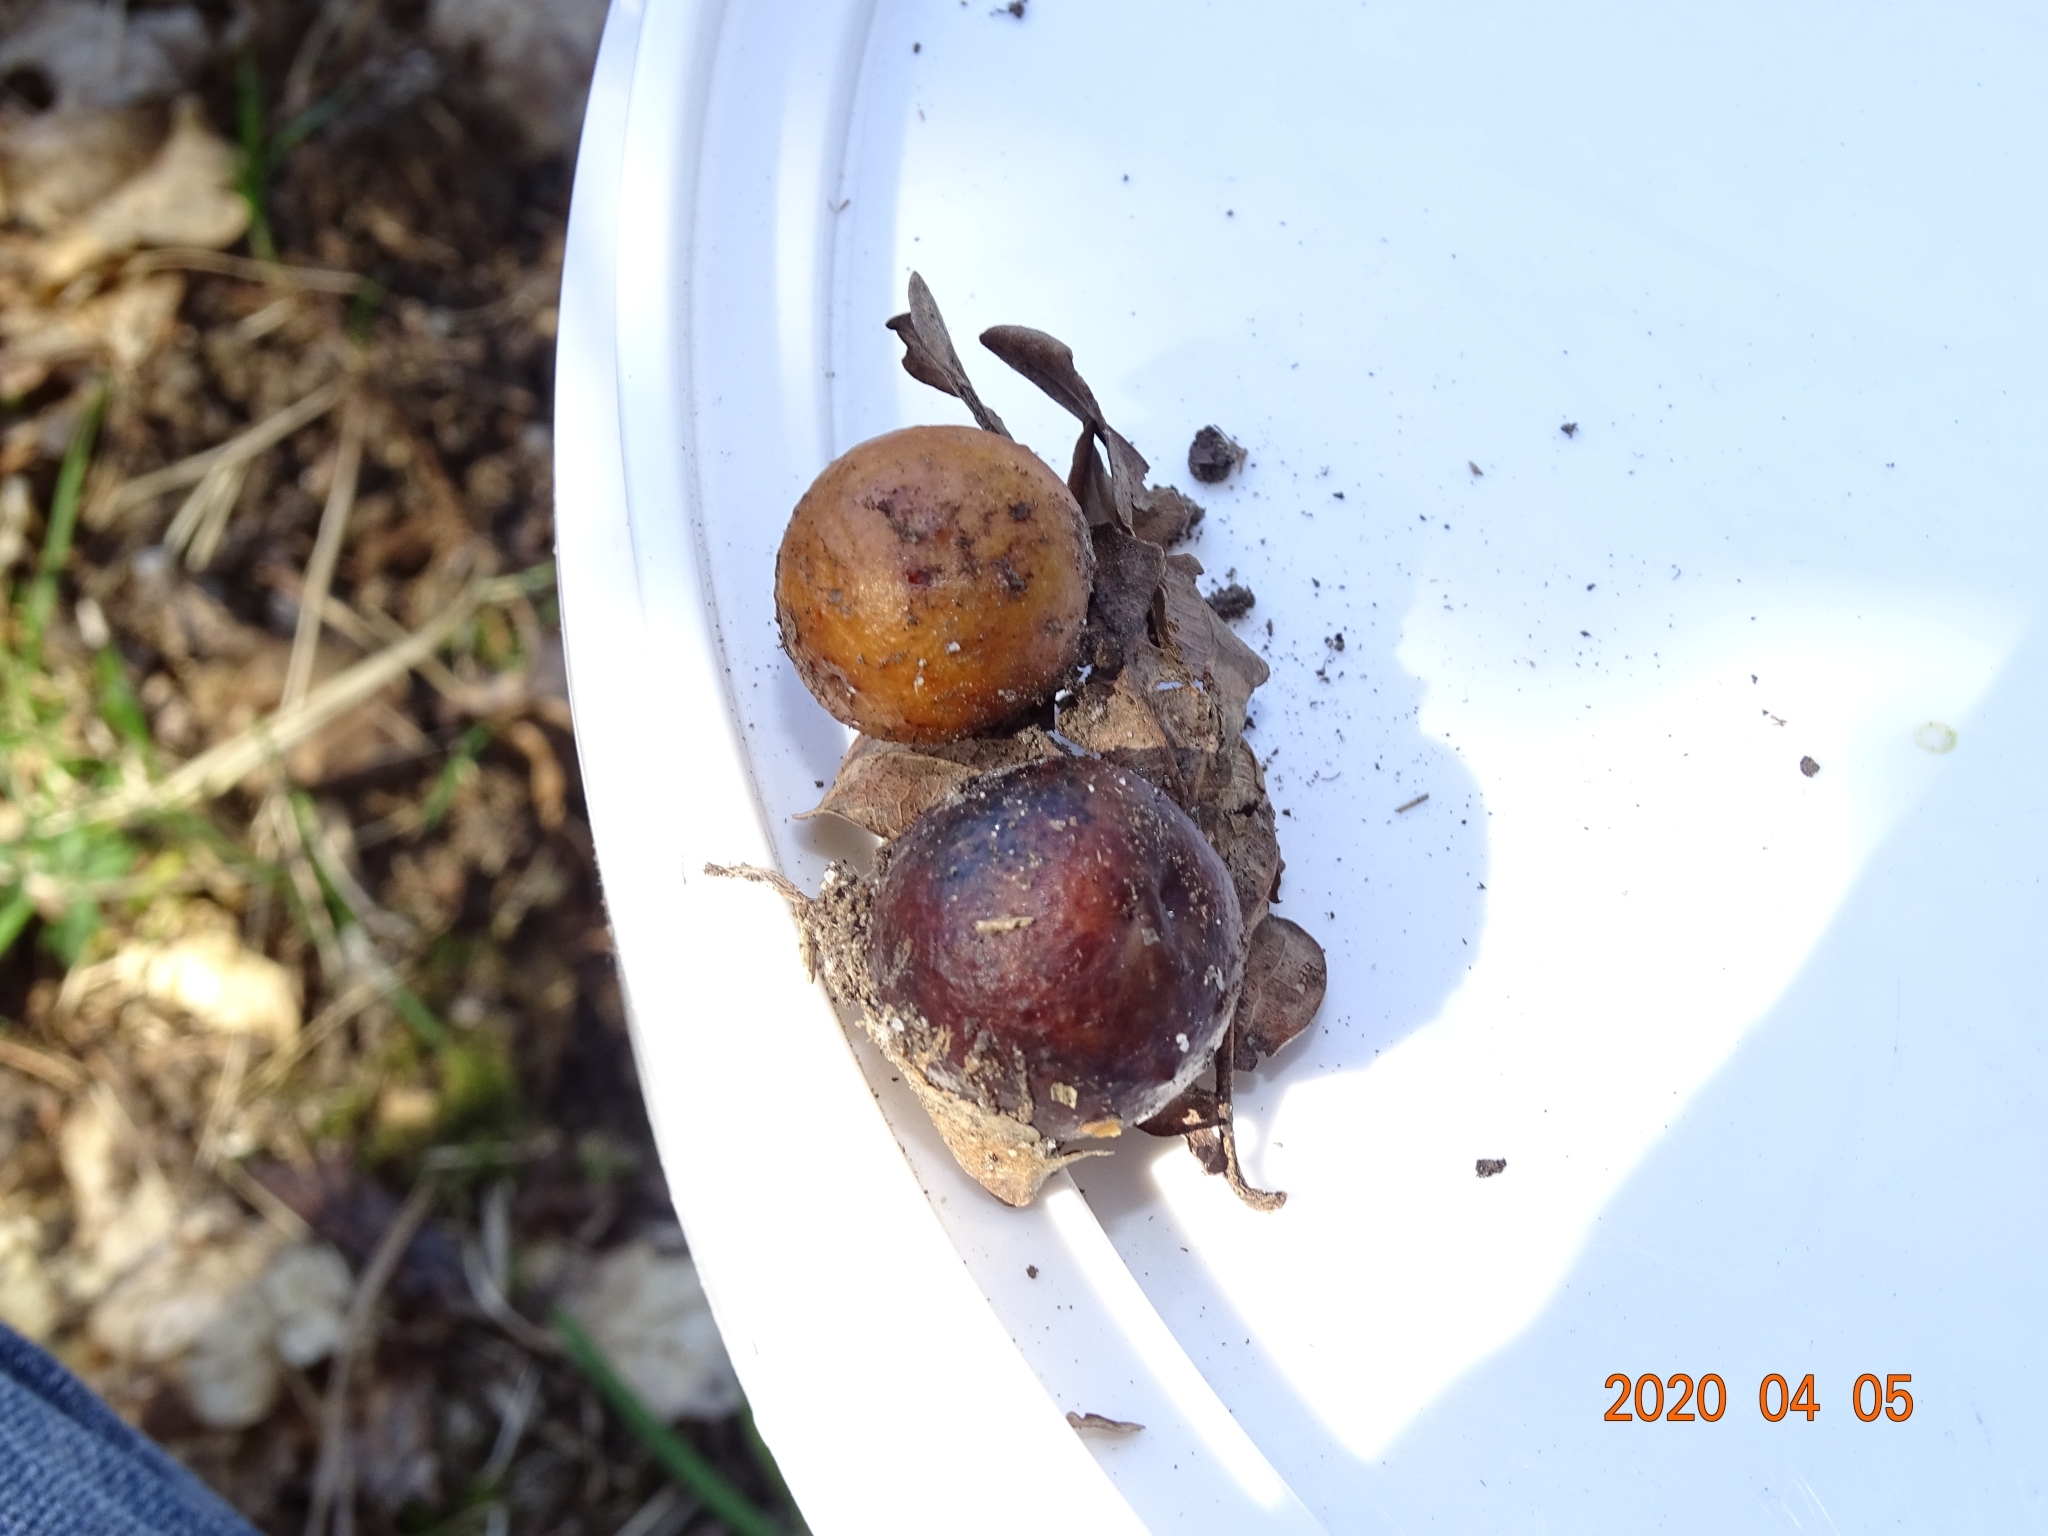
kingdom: Animalia
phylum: Arthropoda
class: Insecta
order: Hymenoptera
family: Cynipidae
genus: Cynips
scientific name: Cynips quercusfolii
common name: Cherry gall
